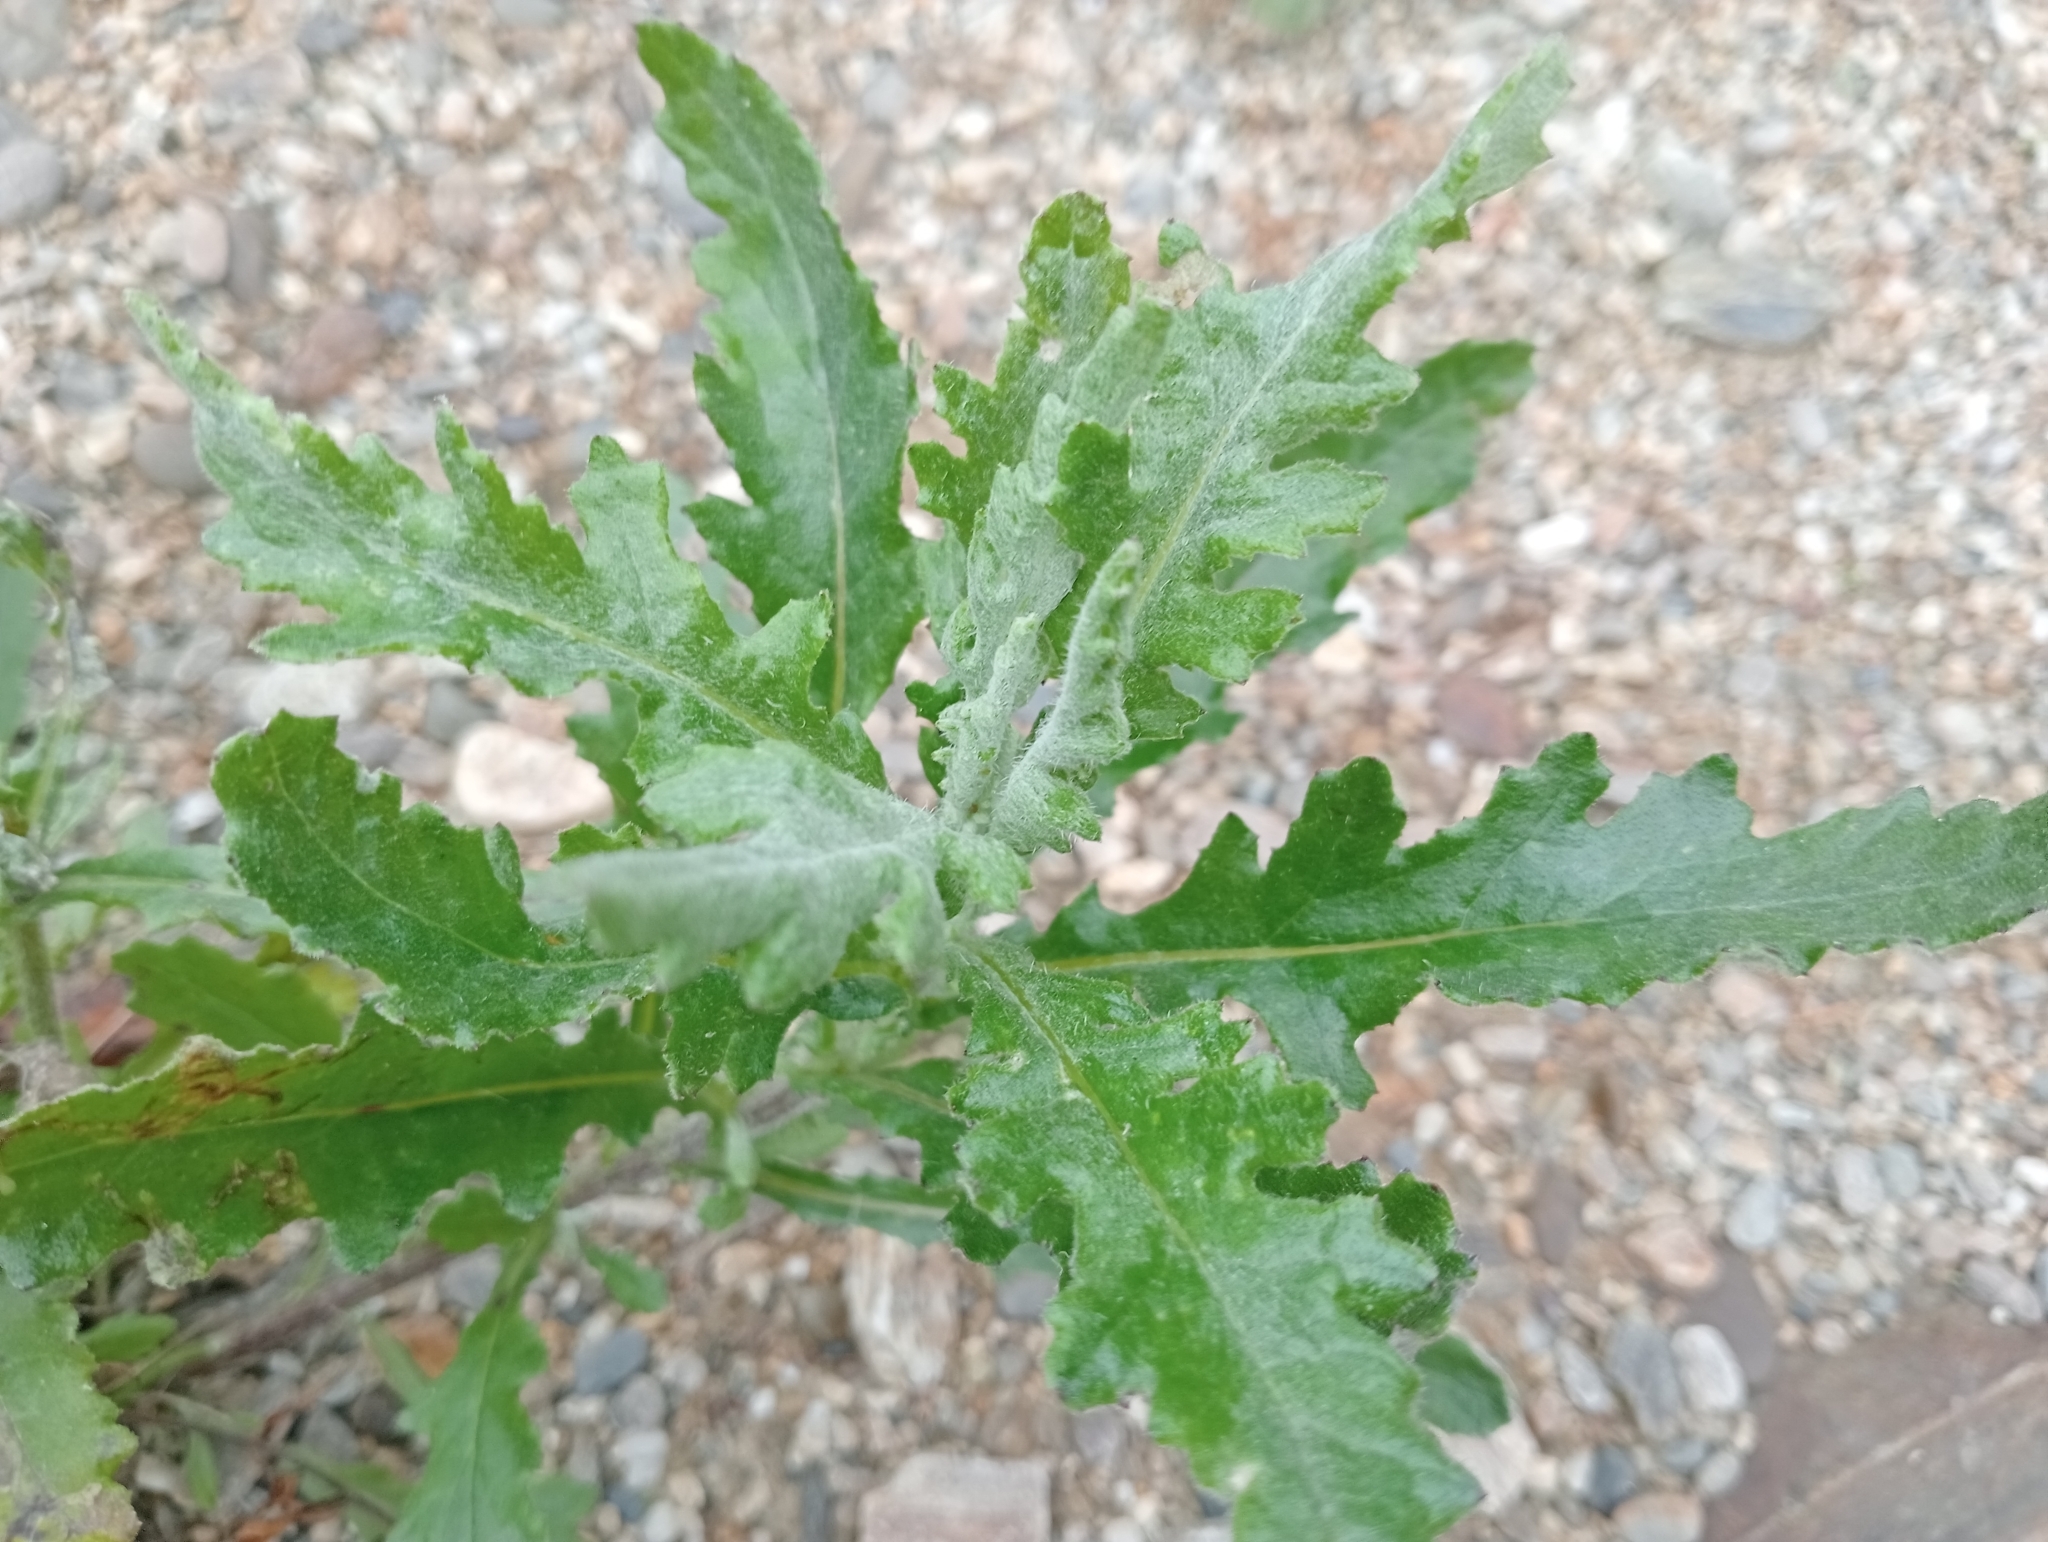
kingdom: Plantae
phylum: Tracheophyta
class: Magnoliopsida
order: Asterales
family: Asteraceae
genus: Senecio
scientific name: Senecio glomeratus
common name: Cutleaf burnweed
